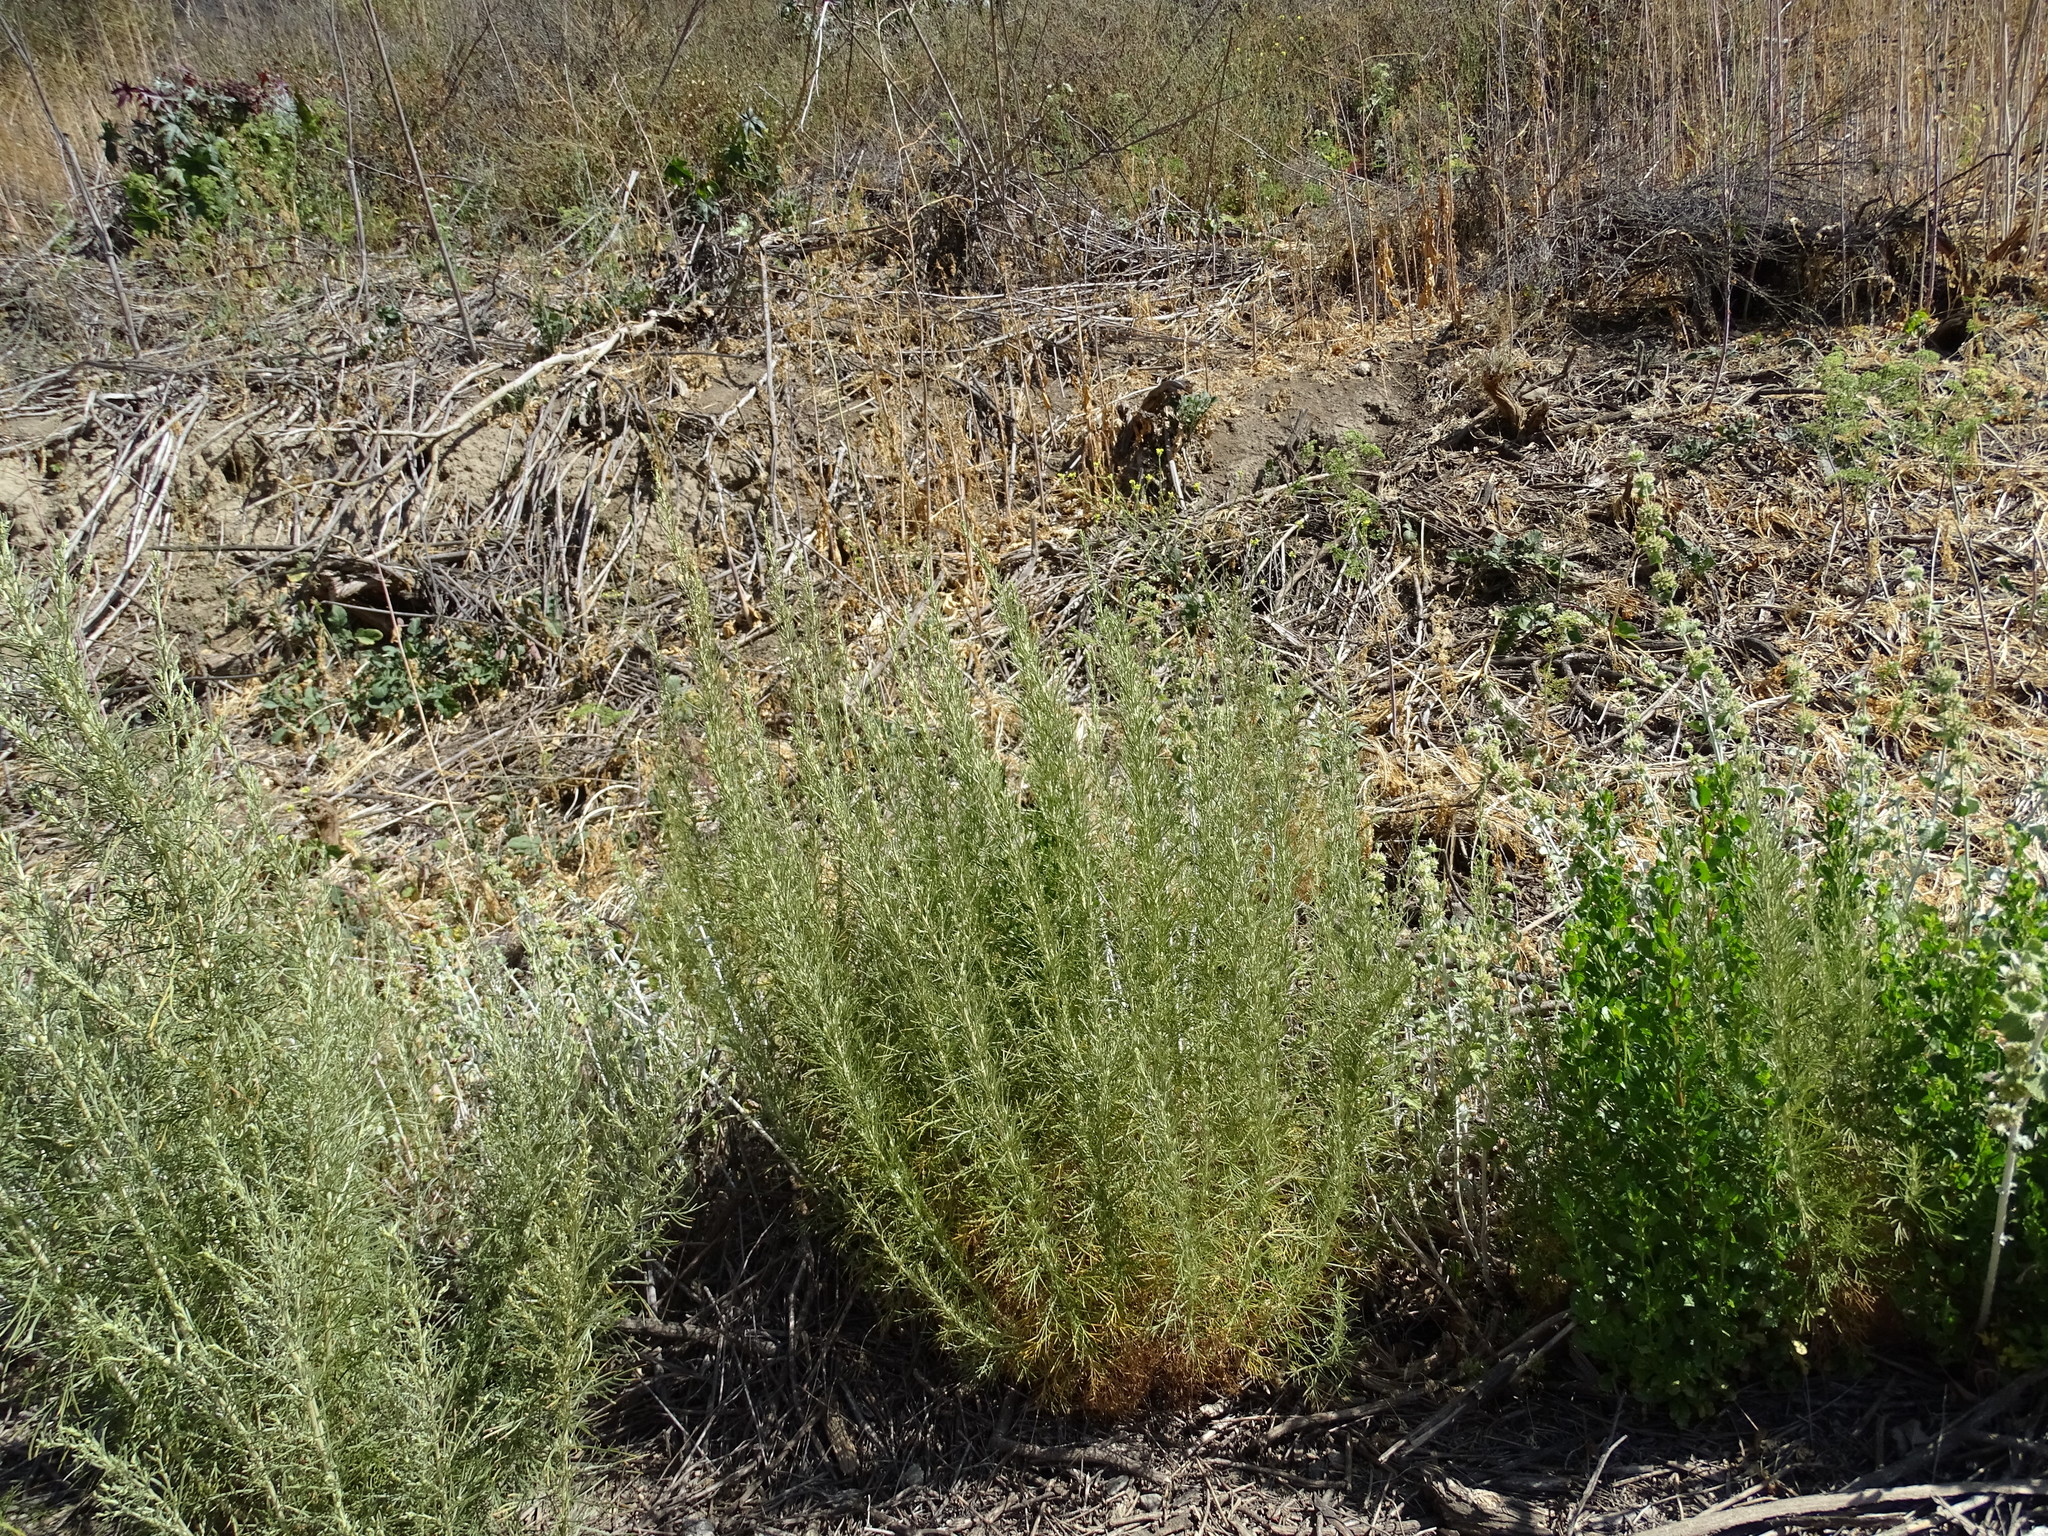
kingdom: Plantae
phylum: Tracheophyta
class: Magnoliopsida
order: Asterales
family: Asteraceae
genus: Artemisia
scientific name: Artemisia californica
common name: California sagebrush
